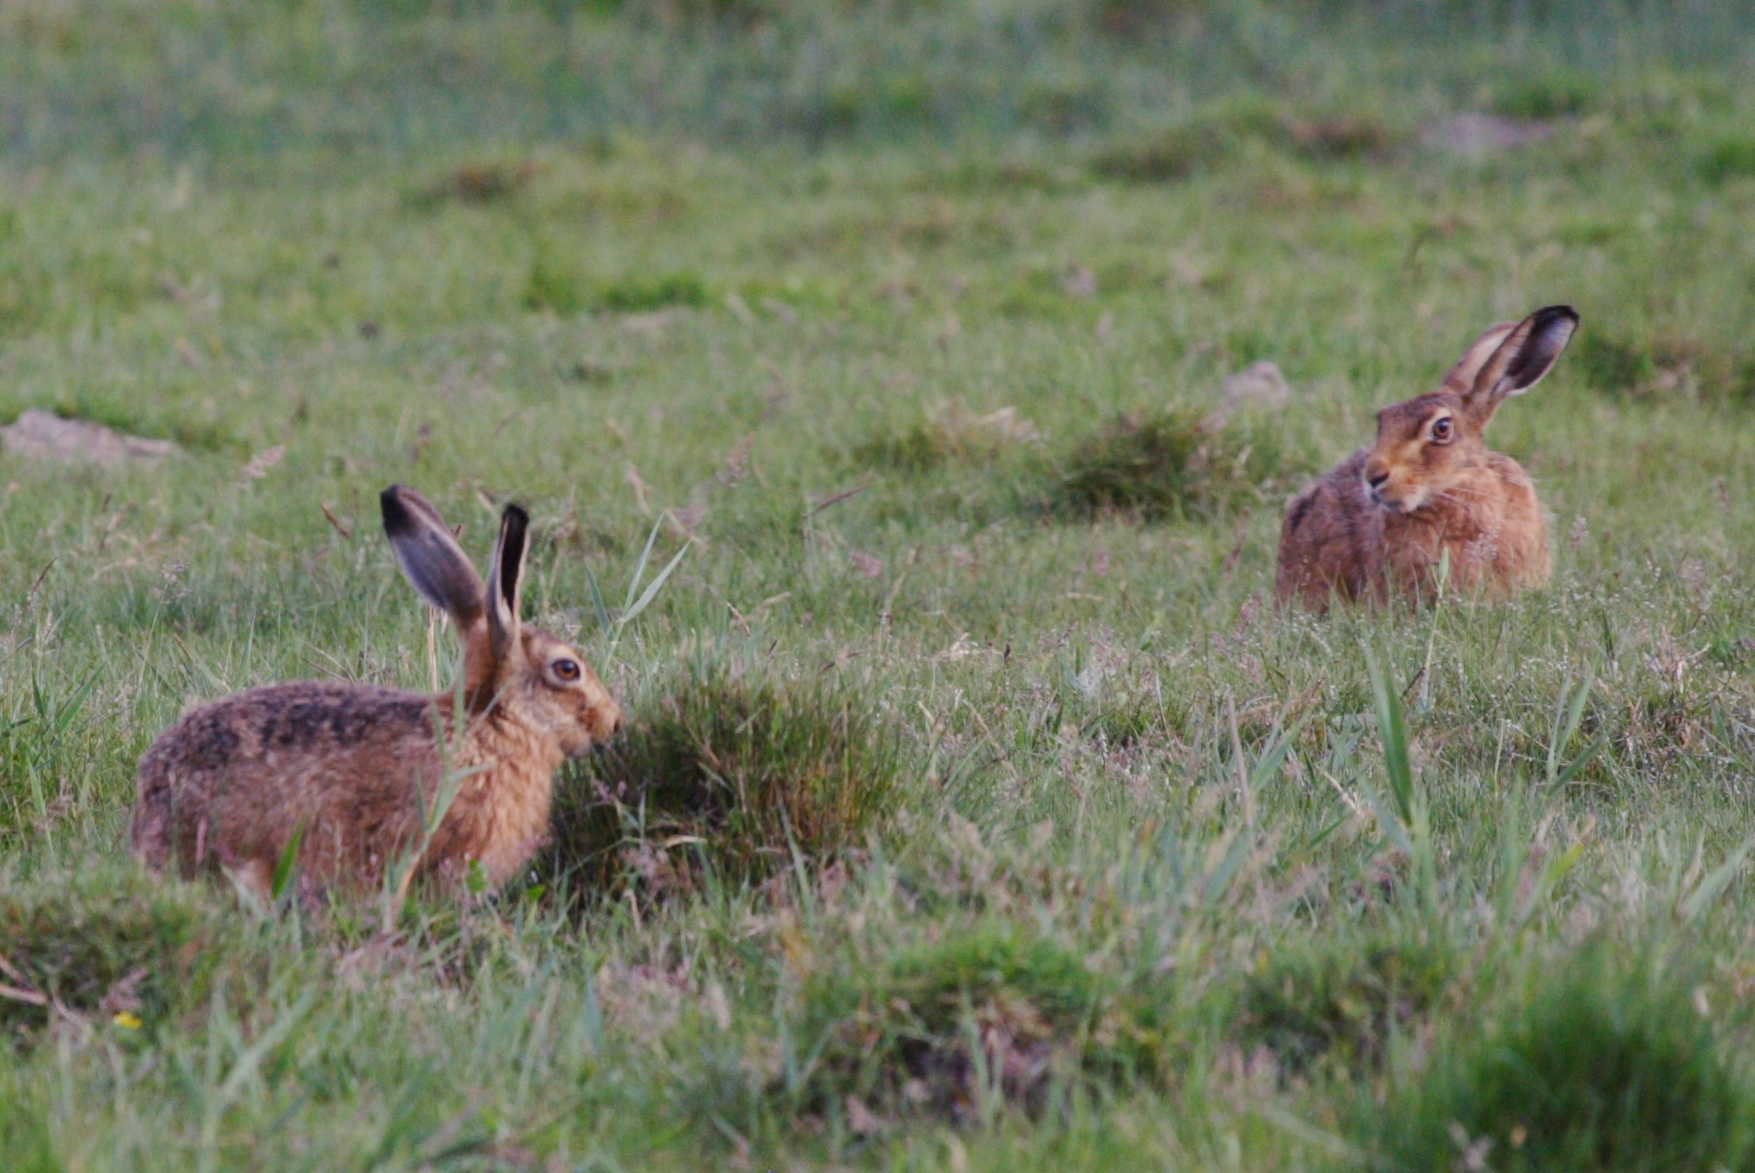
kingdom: Animalia
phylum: Chordata
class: Mammalia
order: Lagomorpha
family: Leporidae
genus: Lepus
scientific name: Lepus europaeus
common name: European hare
